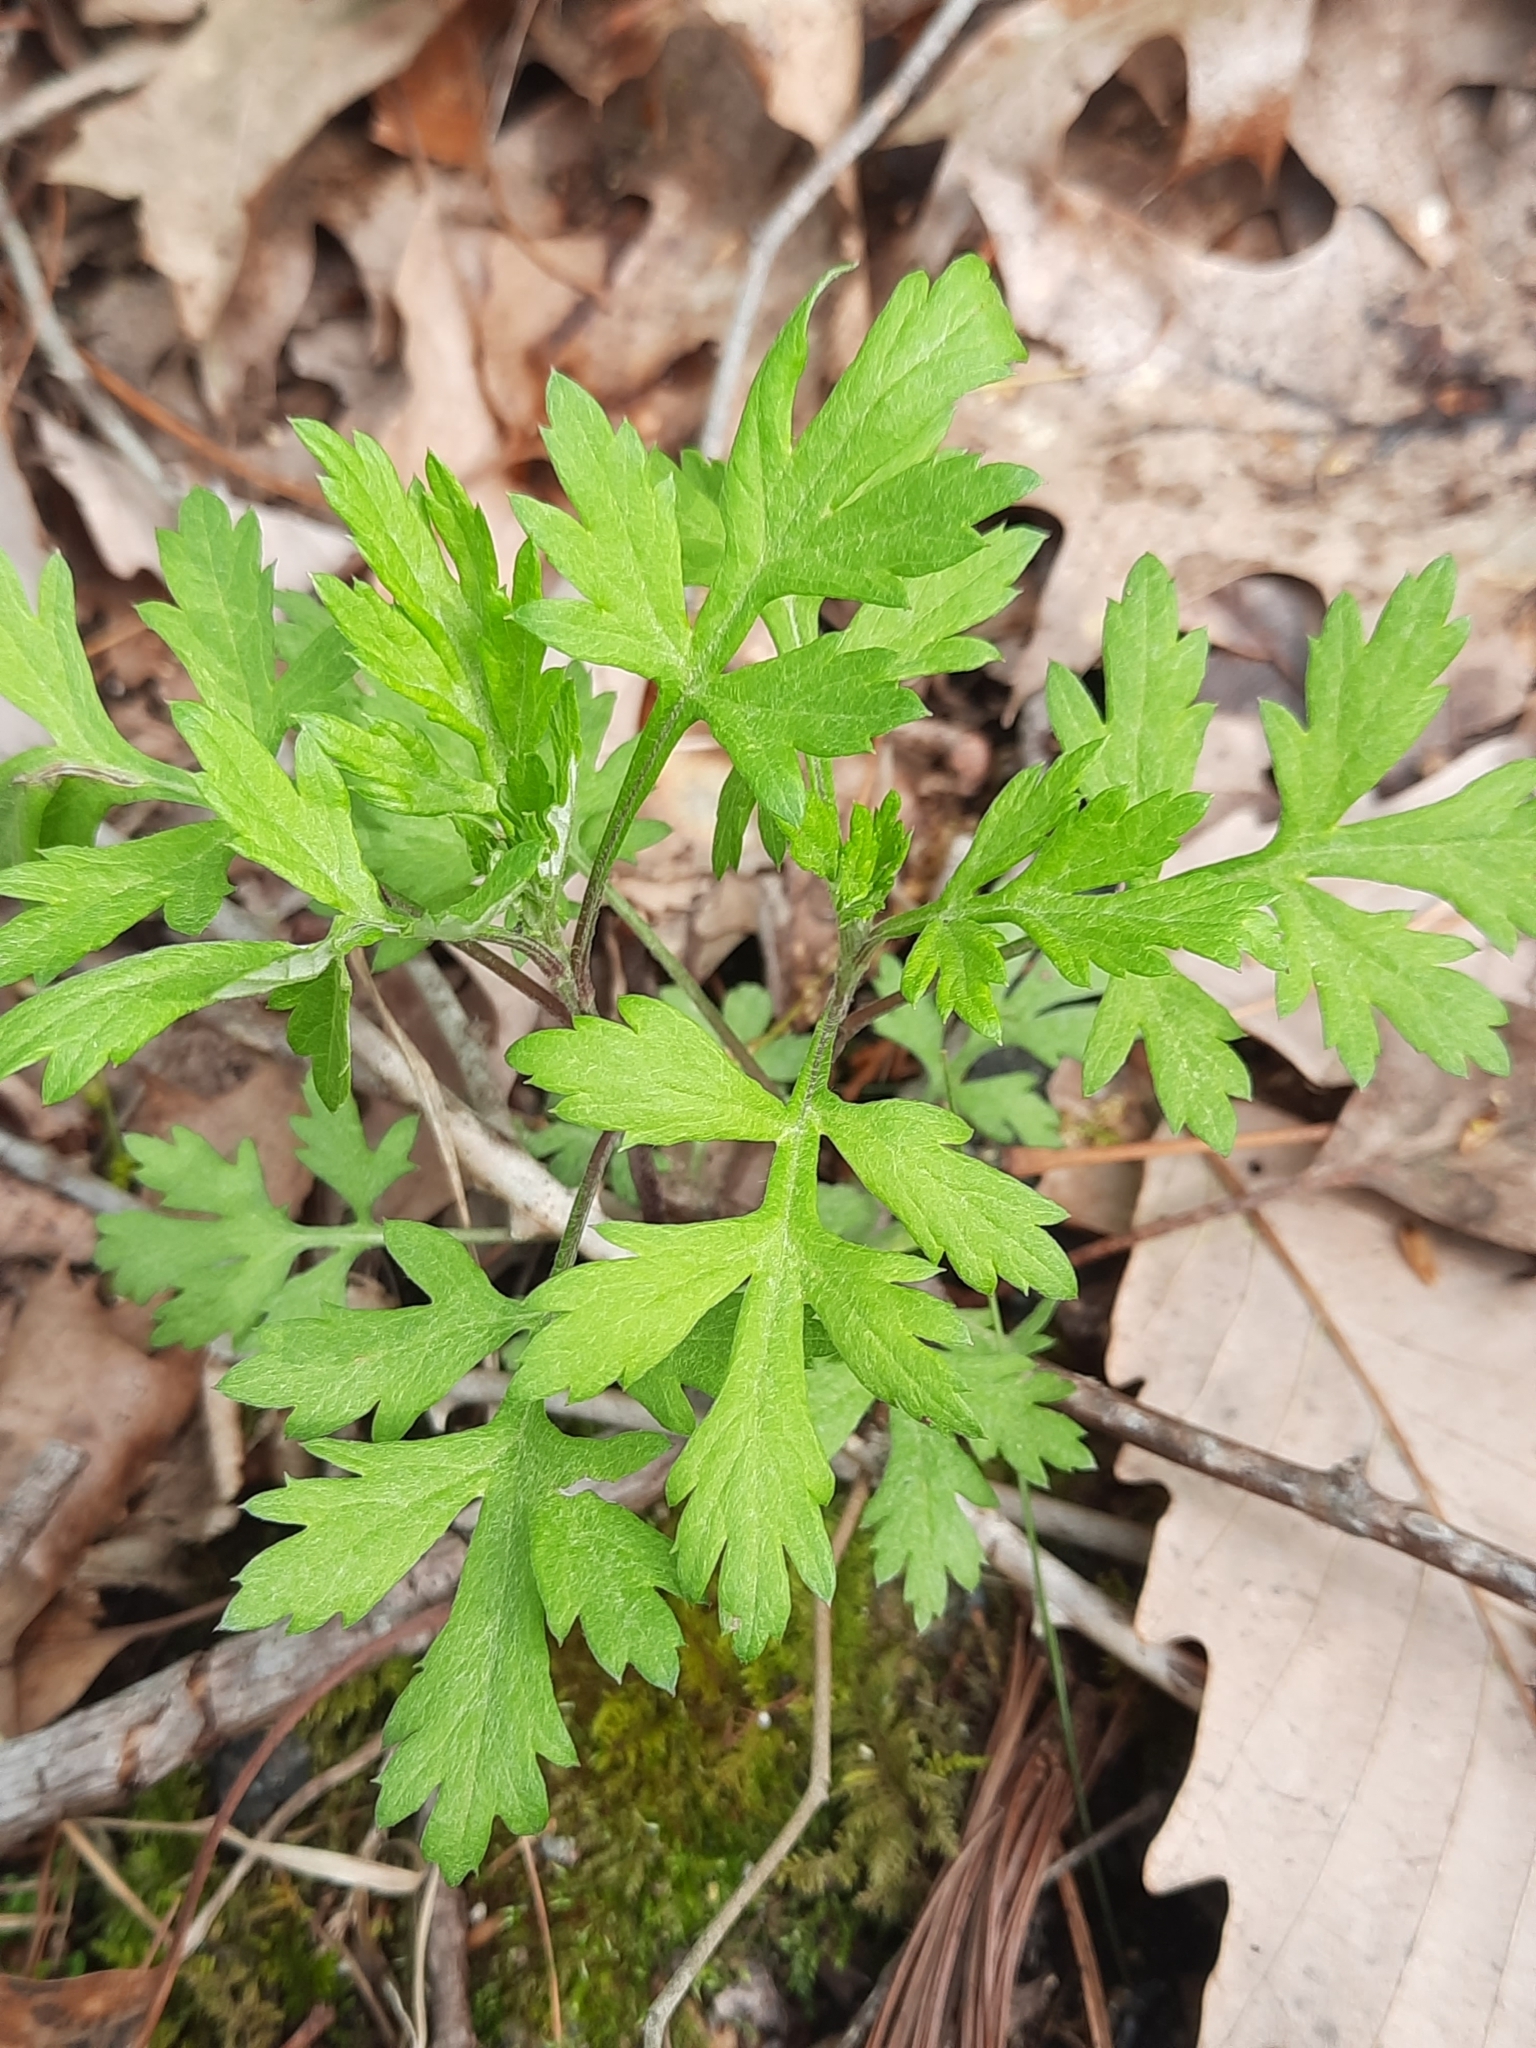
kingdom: Plantae
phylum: Tracheophyta
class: Magnoliopsida
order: Asterales
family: Asteraceae
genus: Artemisia
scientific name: Artemisia vulgaris
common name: Mugwort
